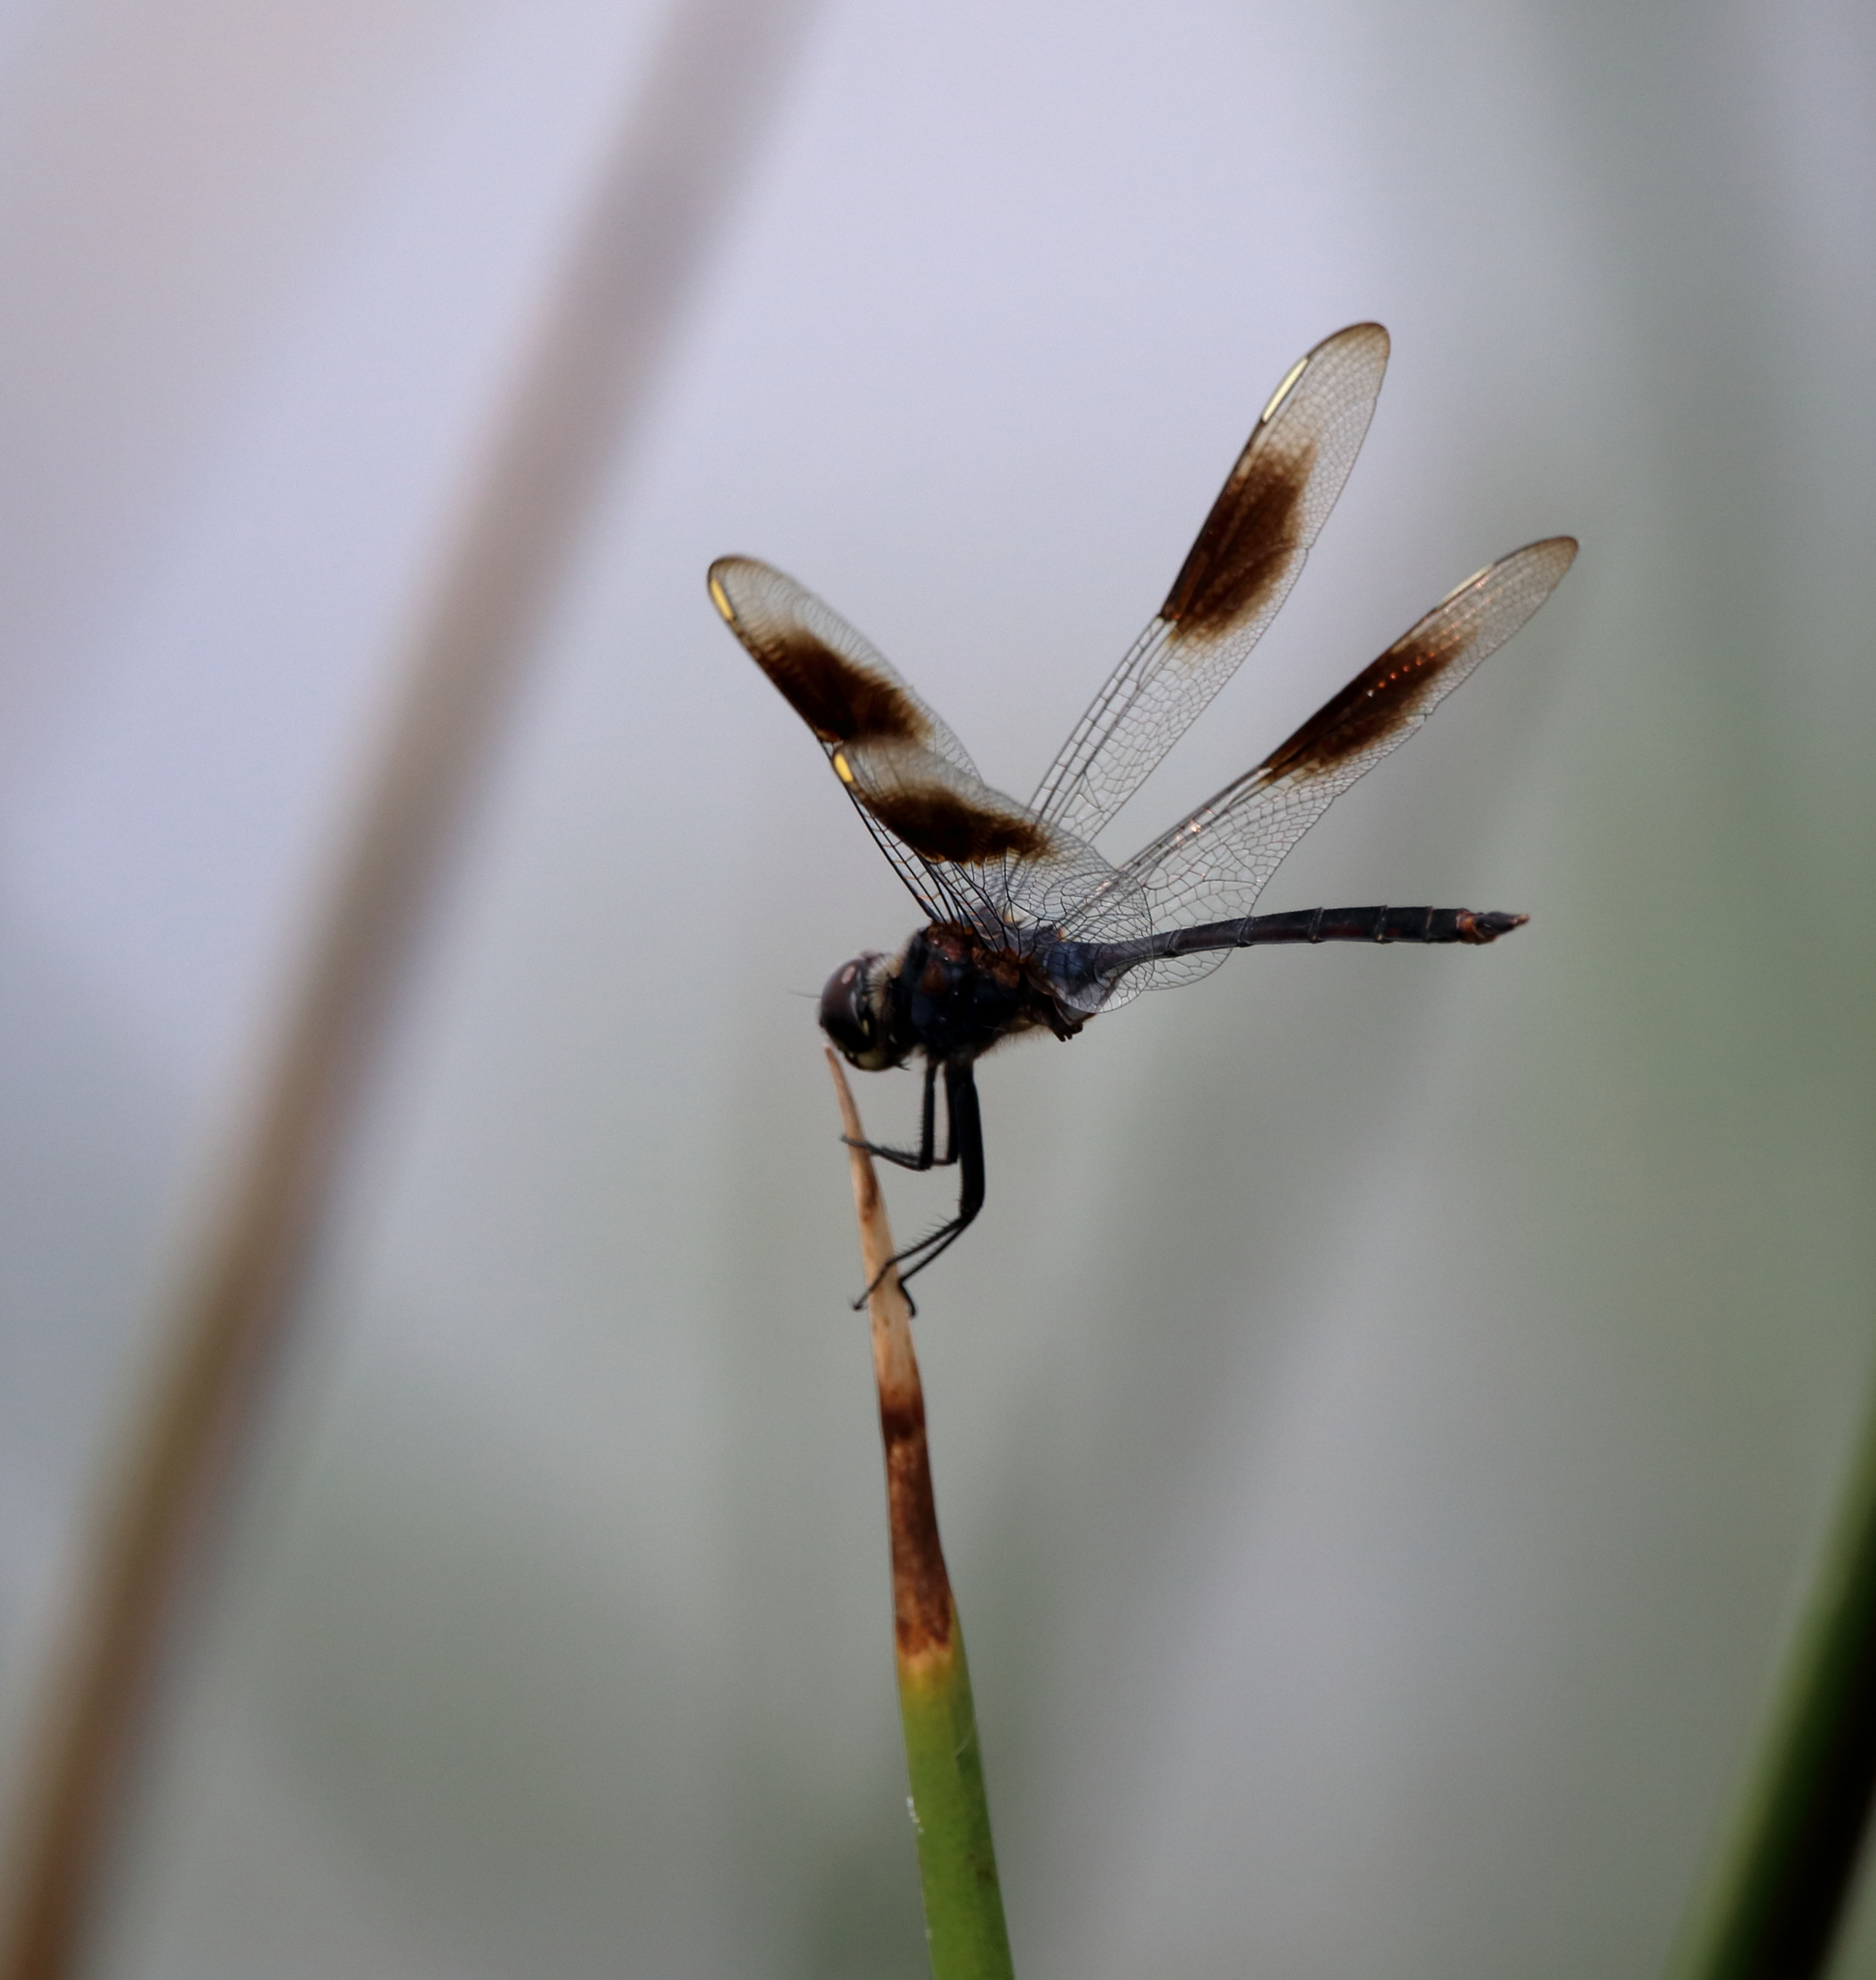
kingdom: Animalia
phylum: Arthropoda
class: Insecta
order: Odonata
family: Libellulidae
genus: Brachymesia
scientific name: Brachymesia gravida
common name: Four-spotted pennant
